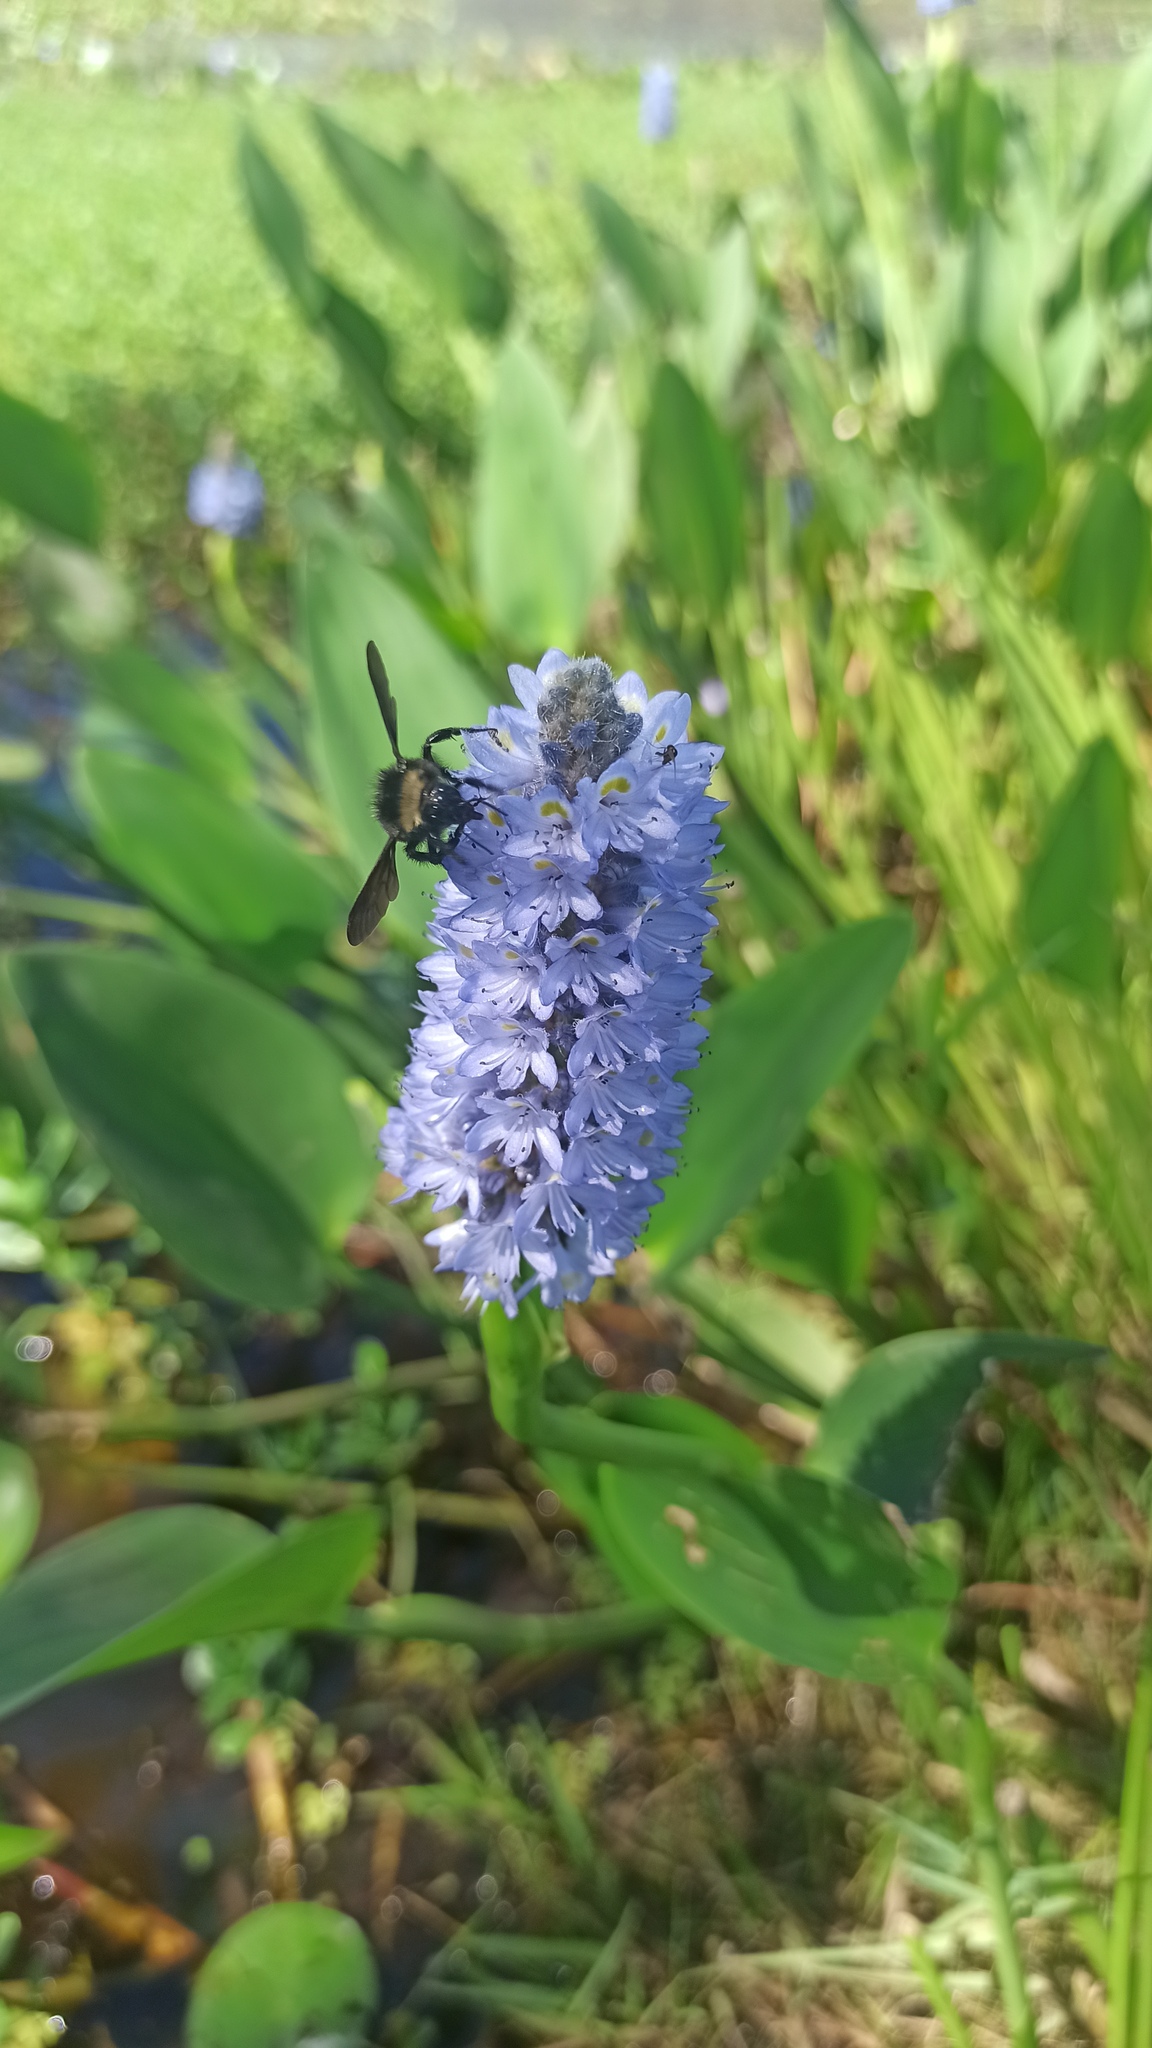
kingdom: Animalia
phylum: Arthropoda
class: Insecta
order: Hymenoptera
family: Apidae
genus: Bombus
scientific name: Bombus pauloensis
